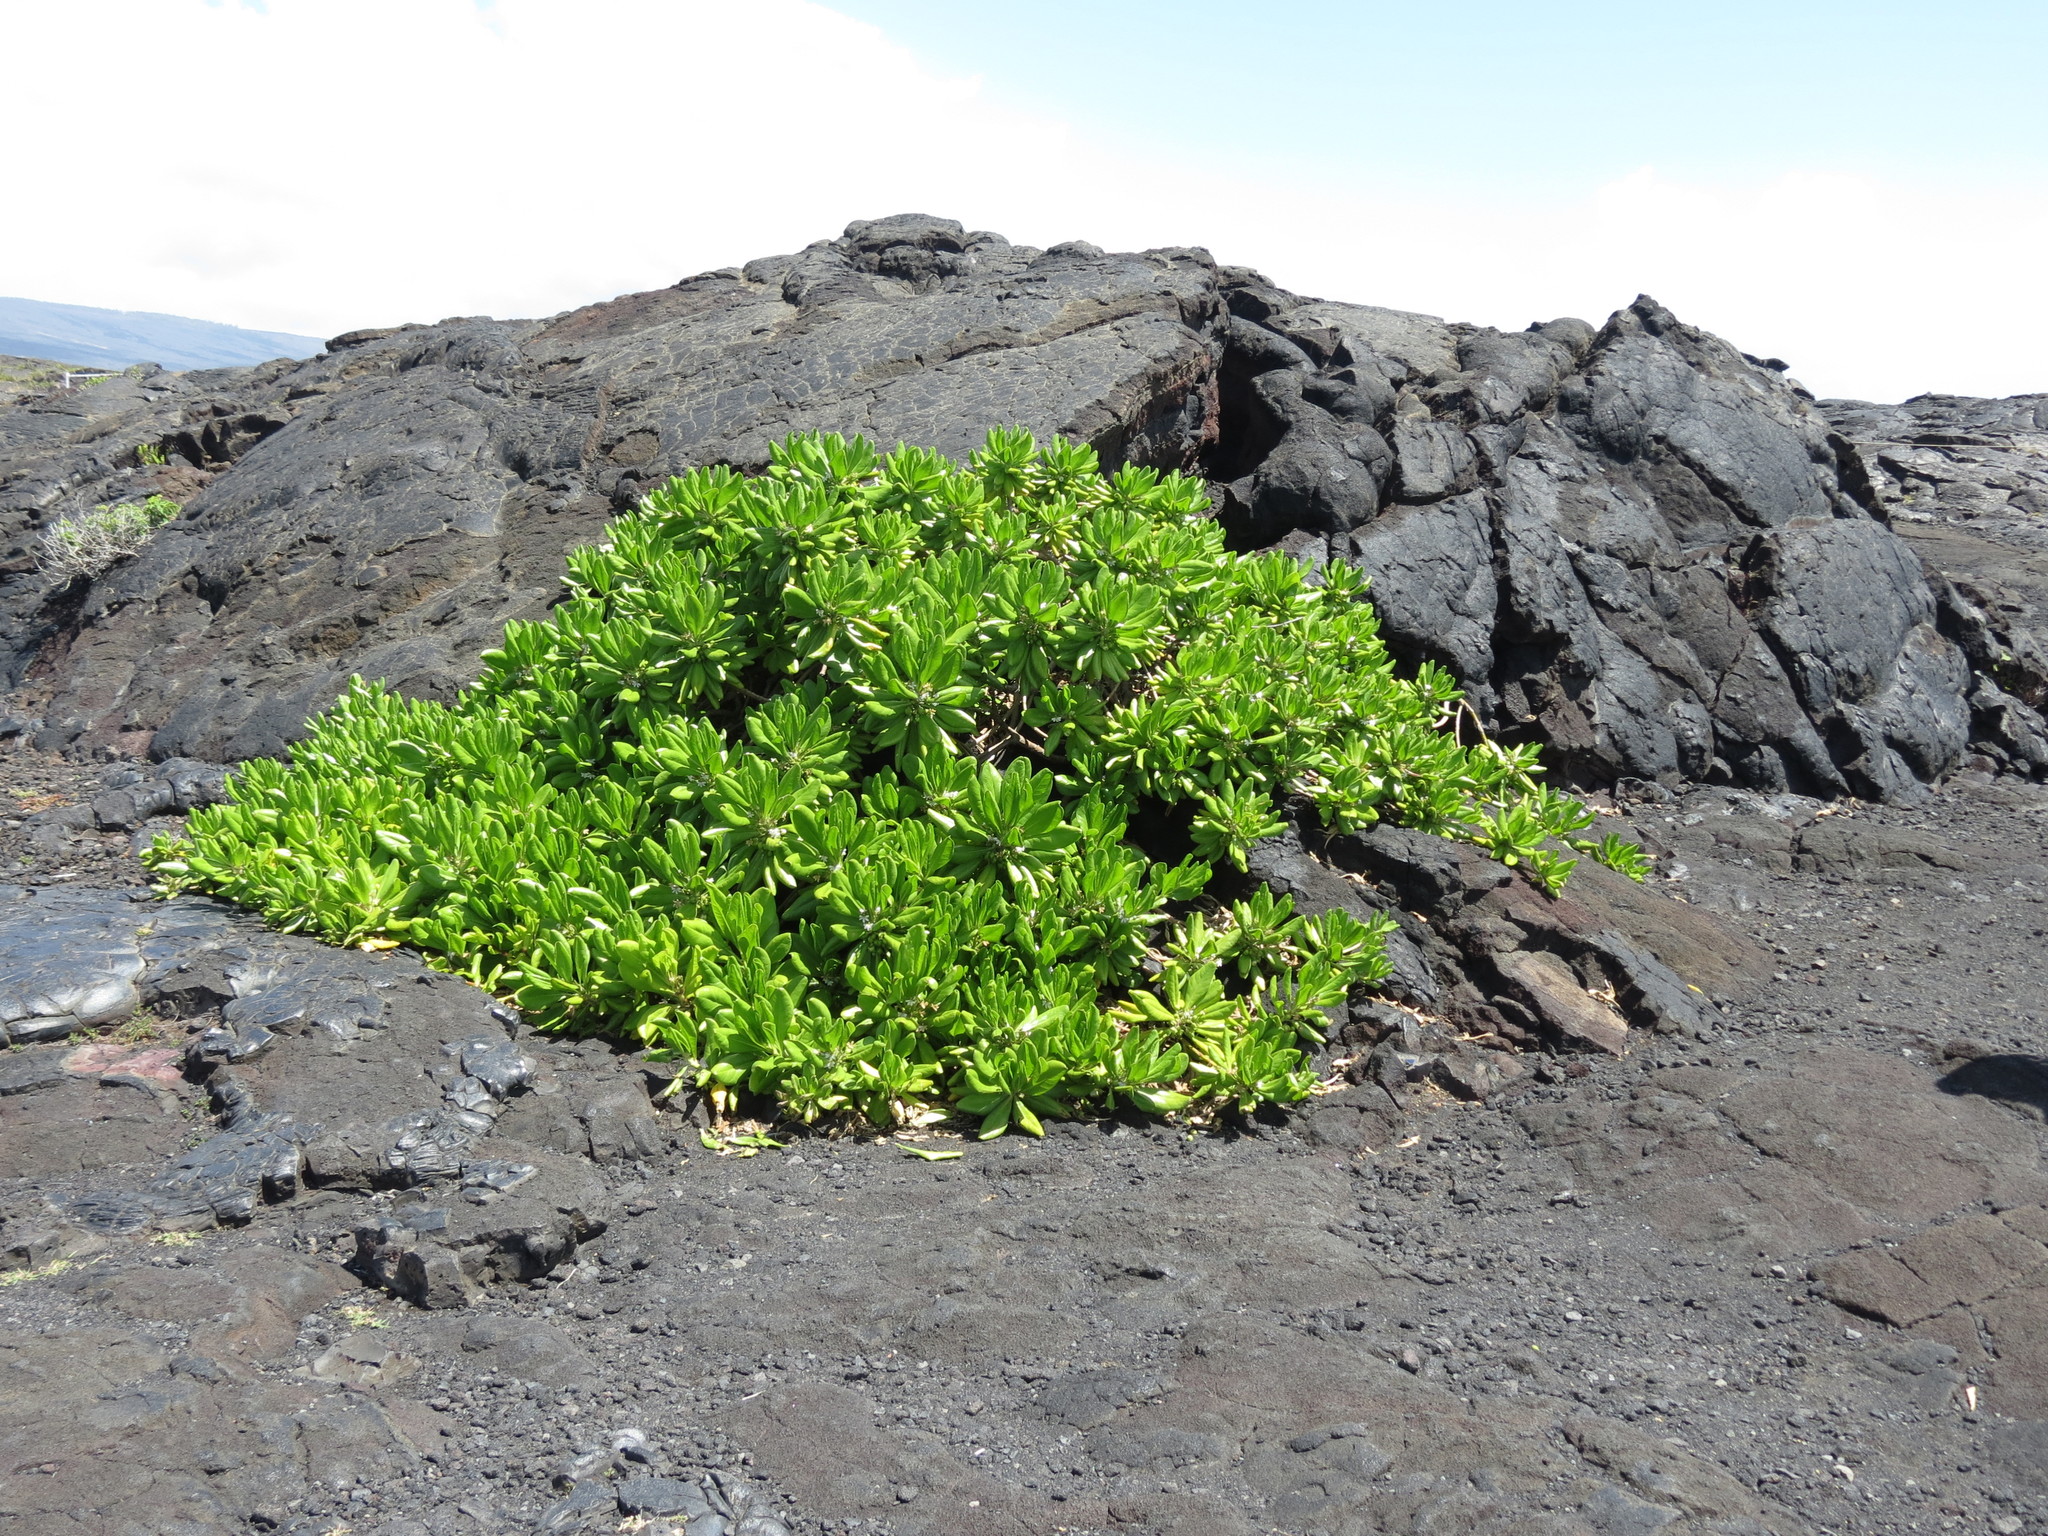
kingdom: Plantae
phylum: Tracheophyta
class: Magnoliopsida
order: Asterales
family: Goodeniaceae
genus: Scaevola
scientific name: Scaevola taccada
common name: Sea lettucetree
